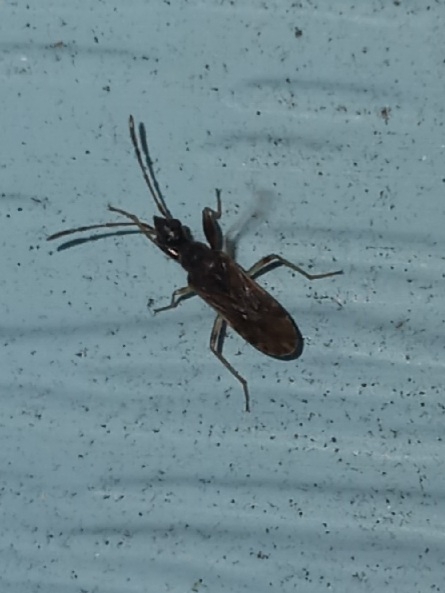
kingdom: Animalia
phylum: Arthropoda
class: Insecta
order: Hemiptera
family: Rhyparochromidae
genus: Heraeus
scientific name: Heraeus plebejus
